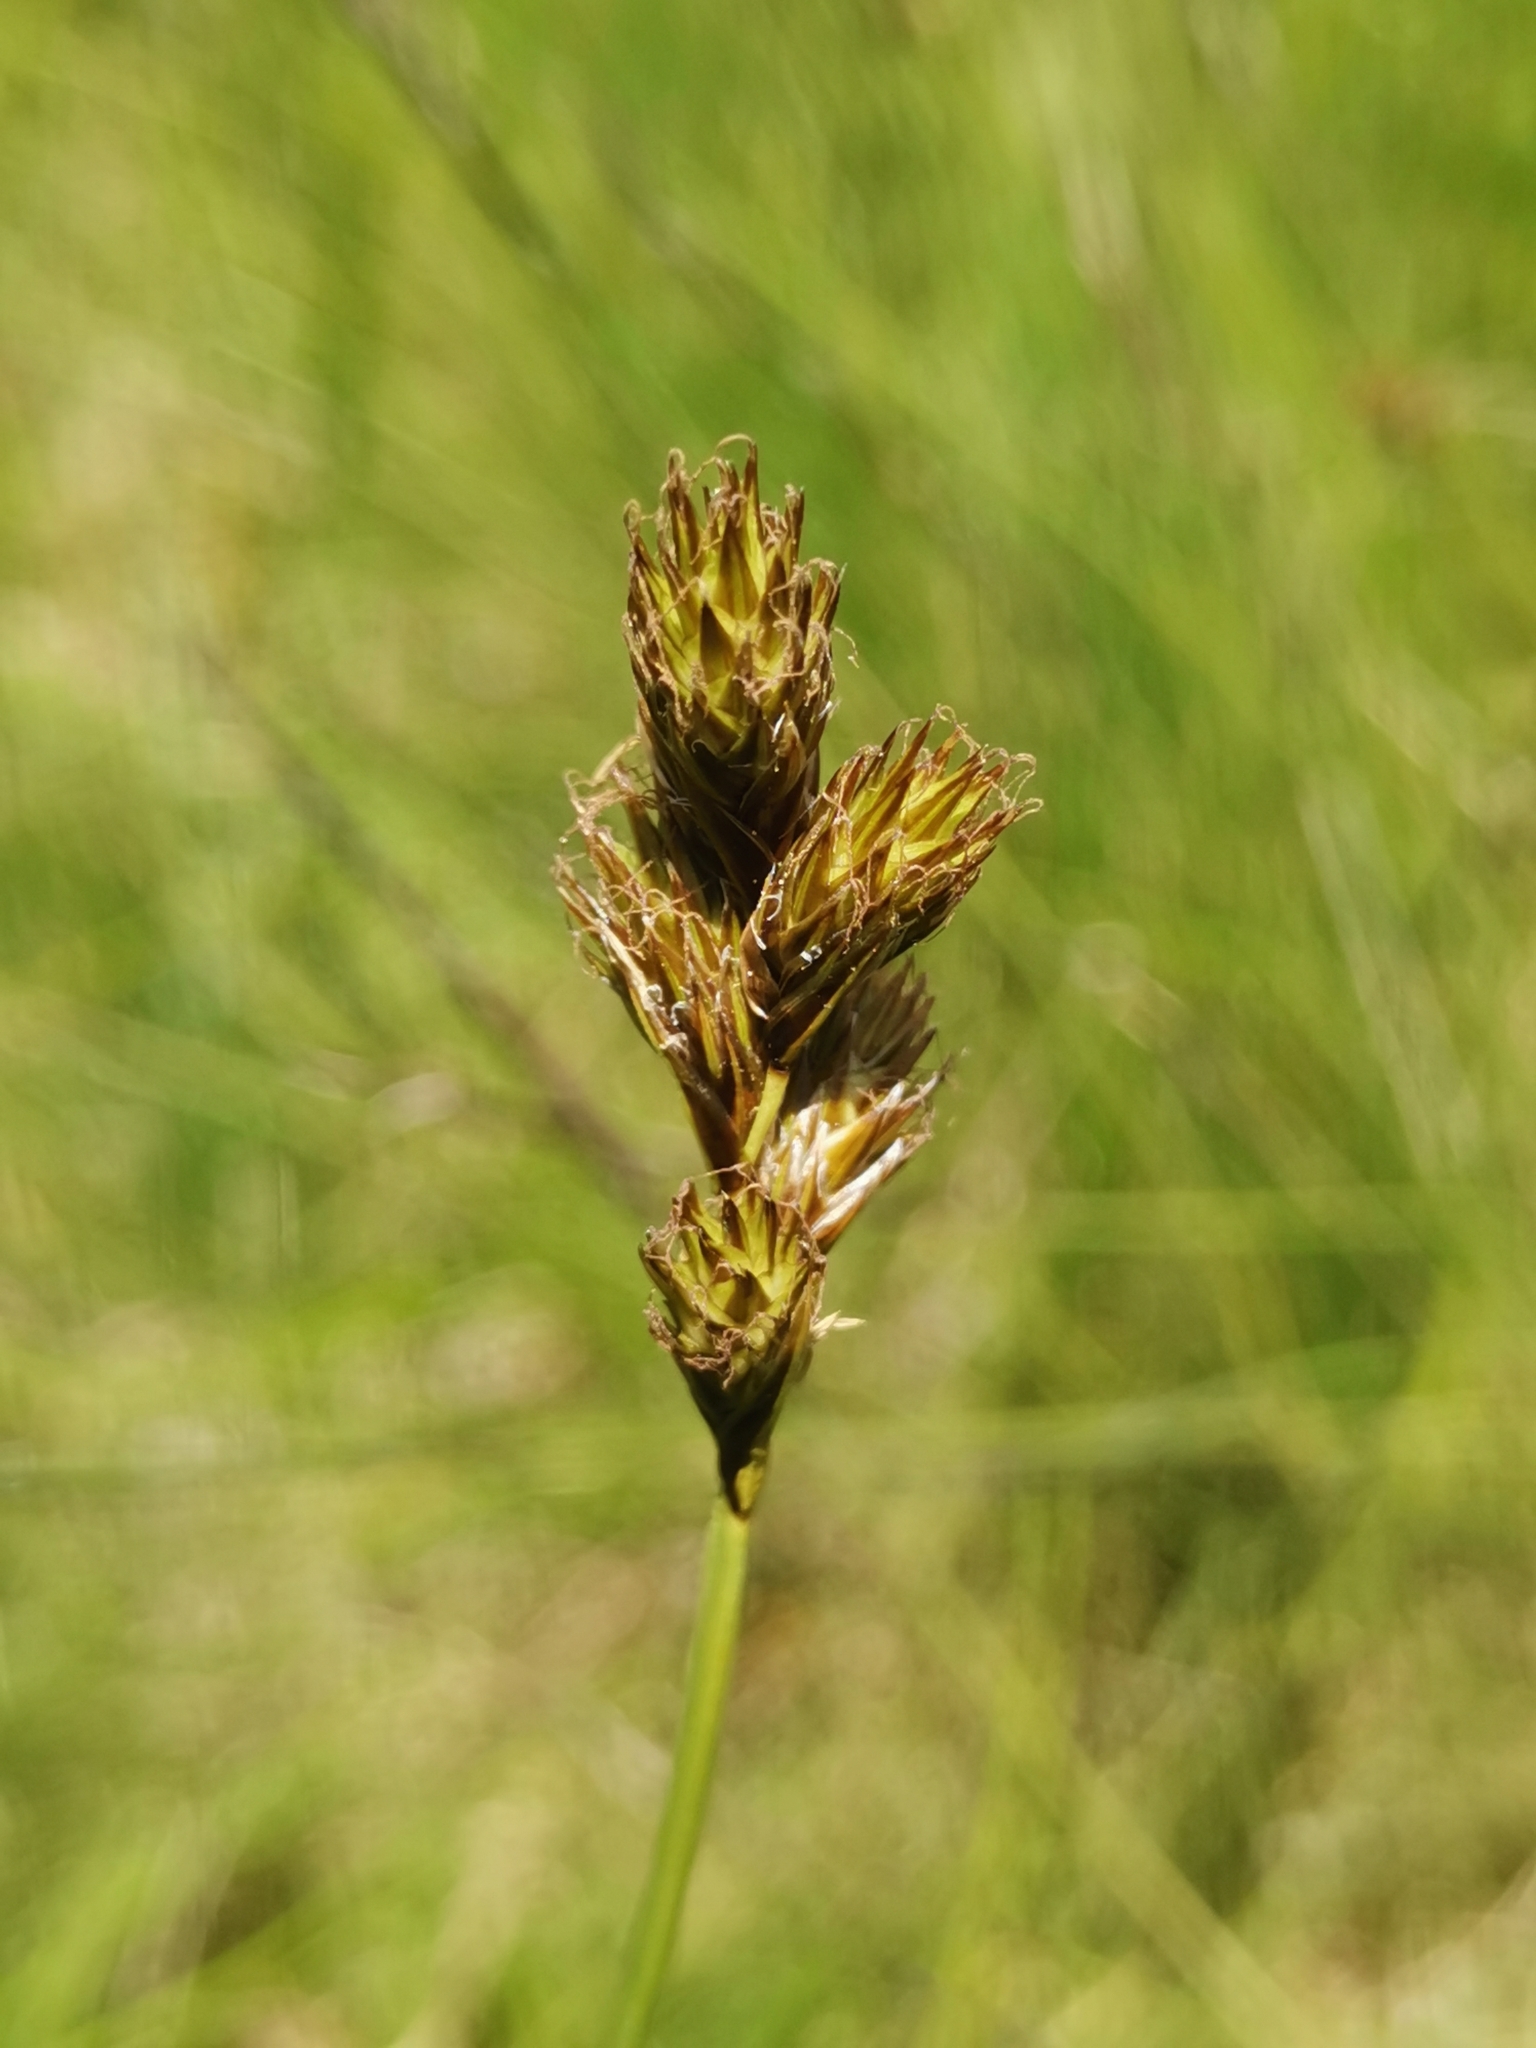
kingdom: Plantae
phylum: Tracheophyta
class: Liliopsida
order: Poales
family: Cyperaceae
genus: Carex
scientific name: Carex leporina
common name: Oval sedge
